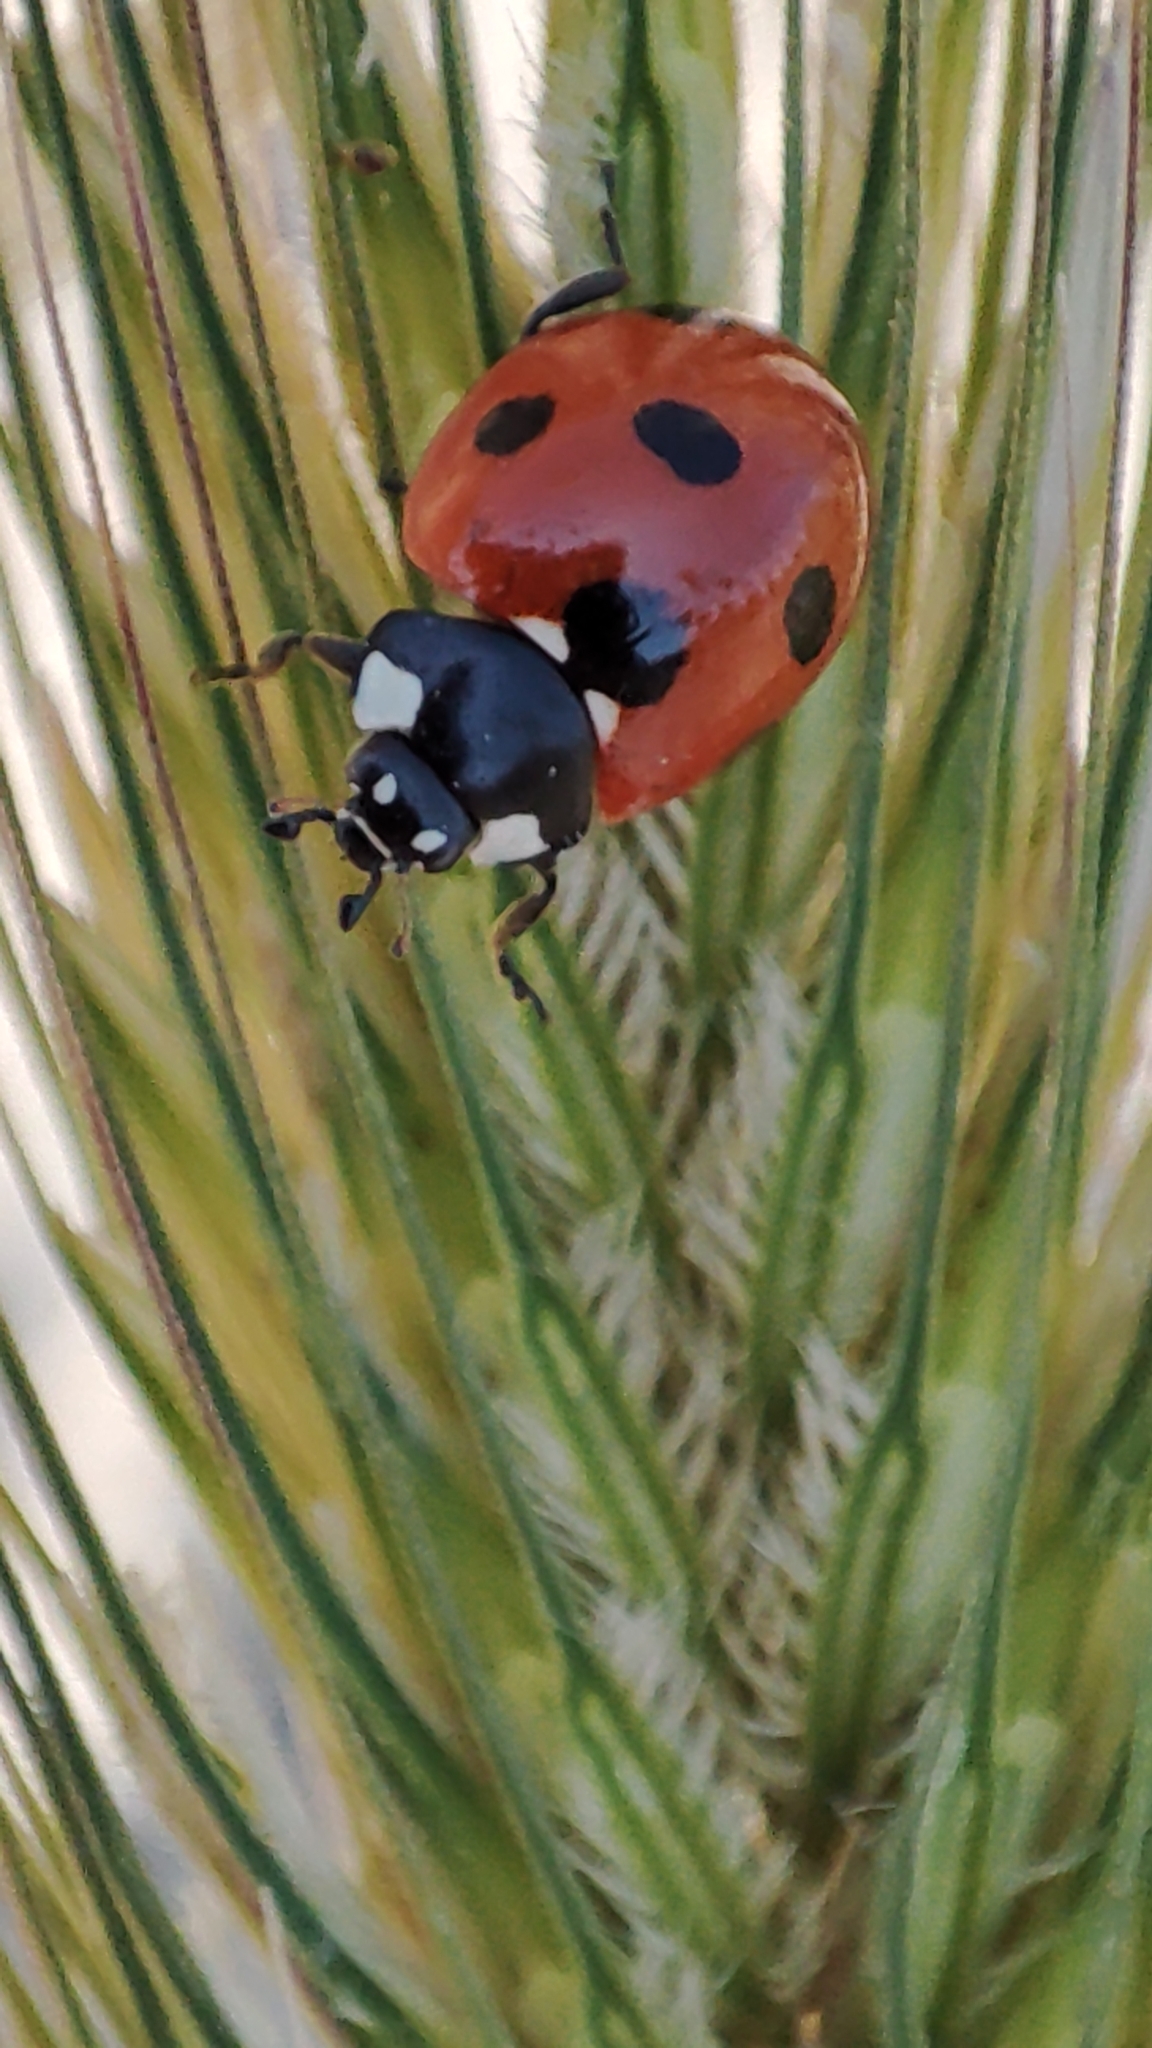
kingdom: Animalia
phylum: Arthropoda
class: Insecta
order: Coleoptera
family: Coccinellidae
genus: Coccinella
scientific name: Coccinella septempunctata
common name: Sevenspotted lady beetle
